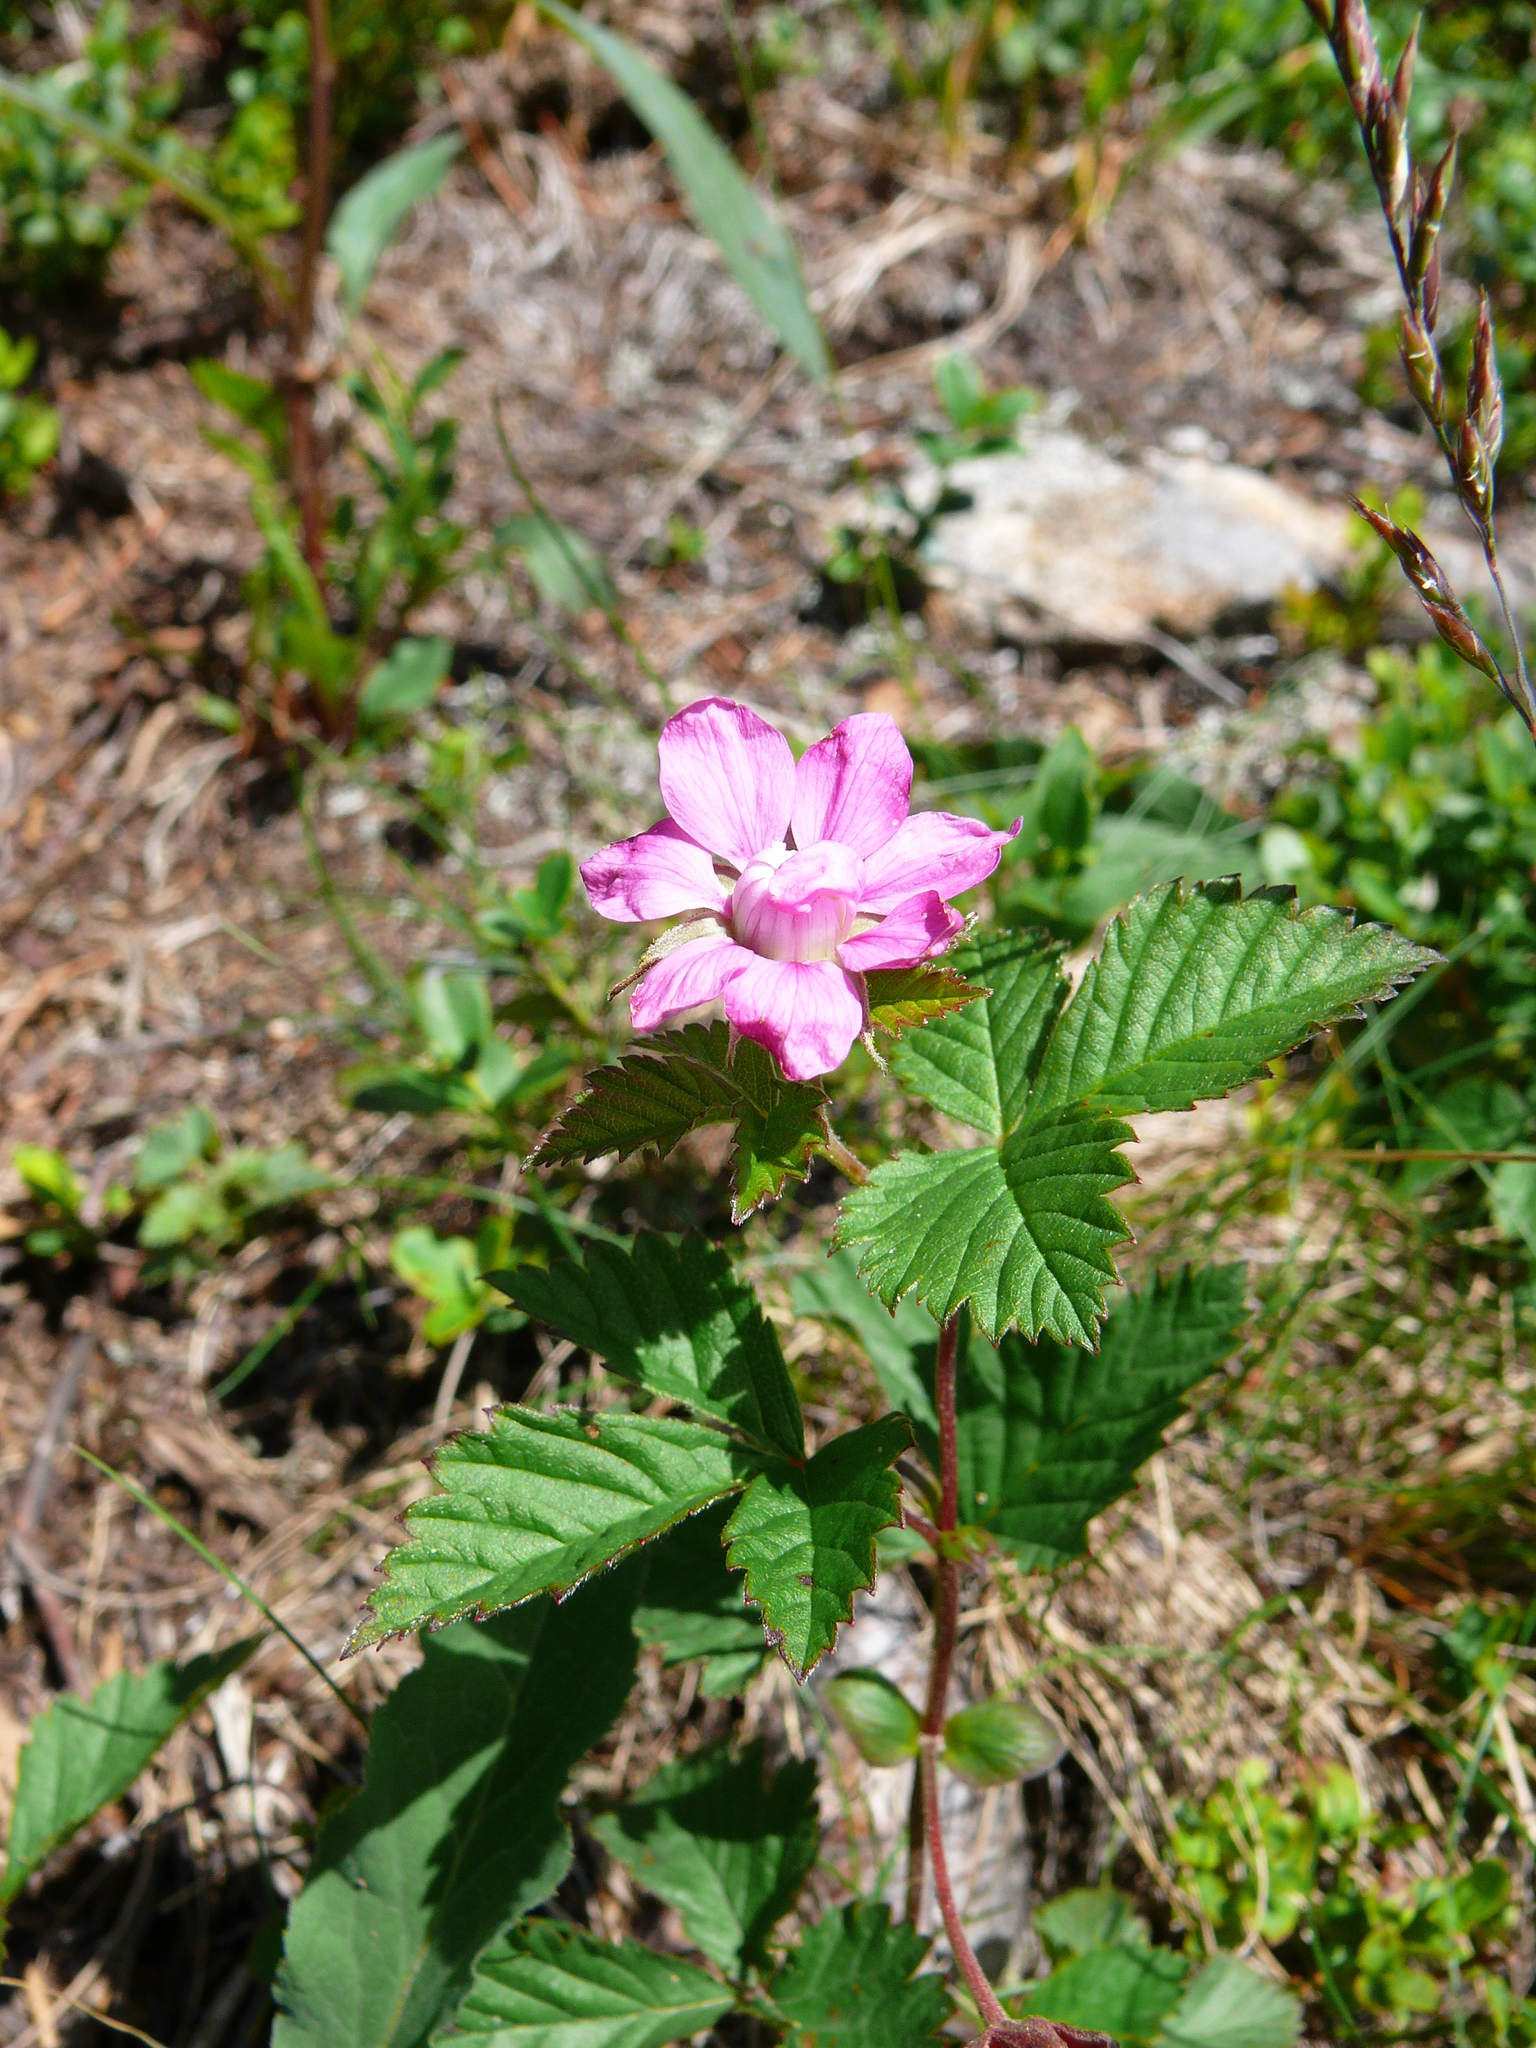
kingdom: Plantae
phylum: Tracheophyta
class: Magnoliopsida
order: Rosales
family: Rosaceae
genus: Rubus
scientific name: Rubus arcticus
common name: Arctic bramble
